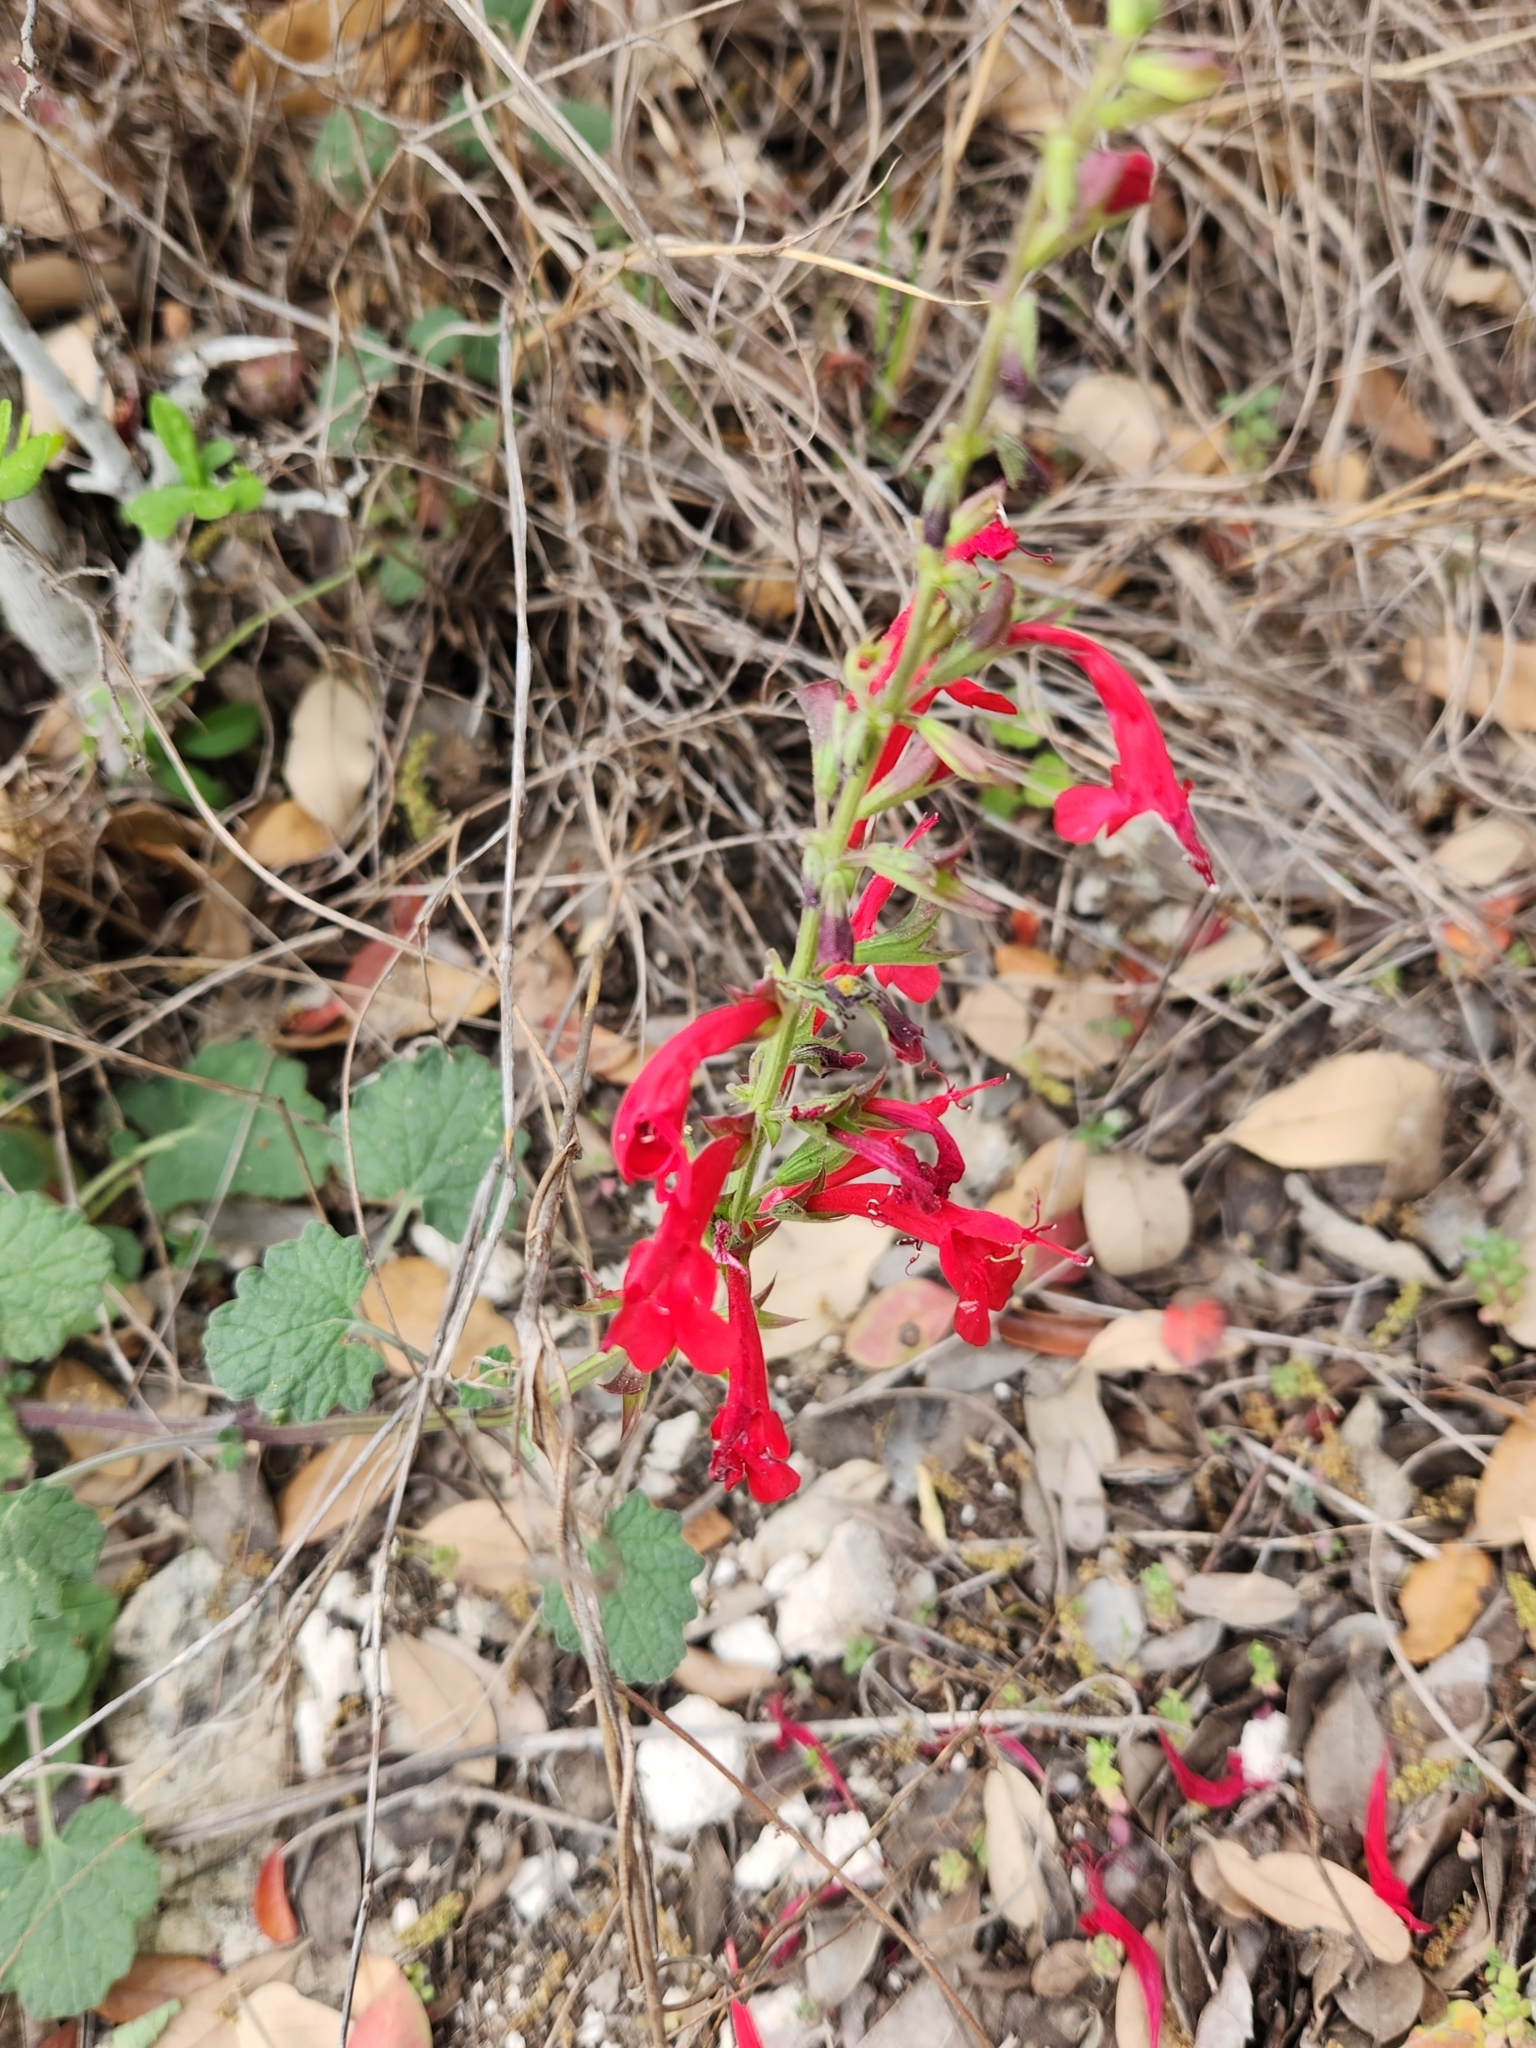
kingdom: Plantae
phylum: Tracheophyta
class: Magnoliopsida
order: Lamiales
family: Lamiaceae
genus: Salvia
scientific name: Salvia roemeriana
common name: Cedar sage
